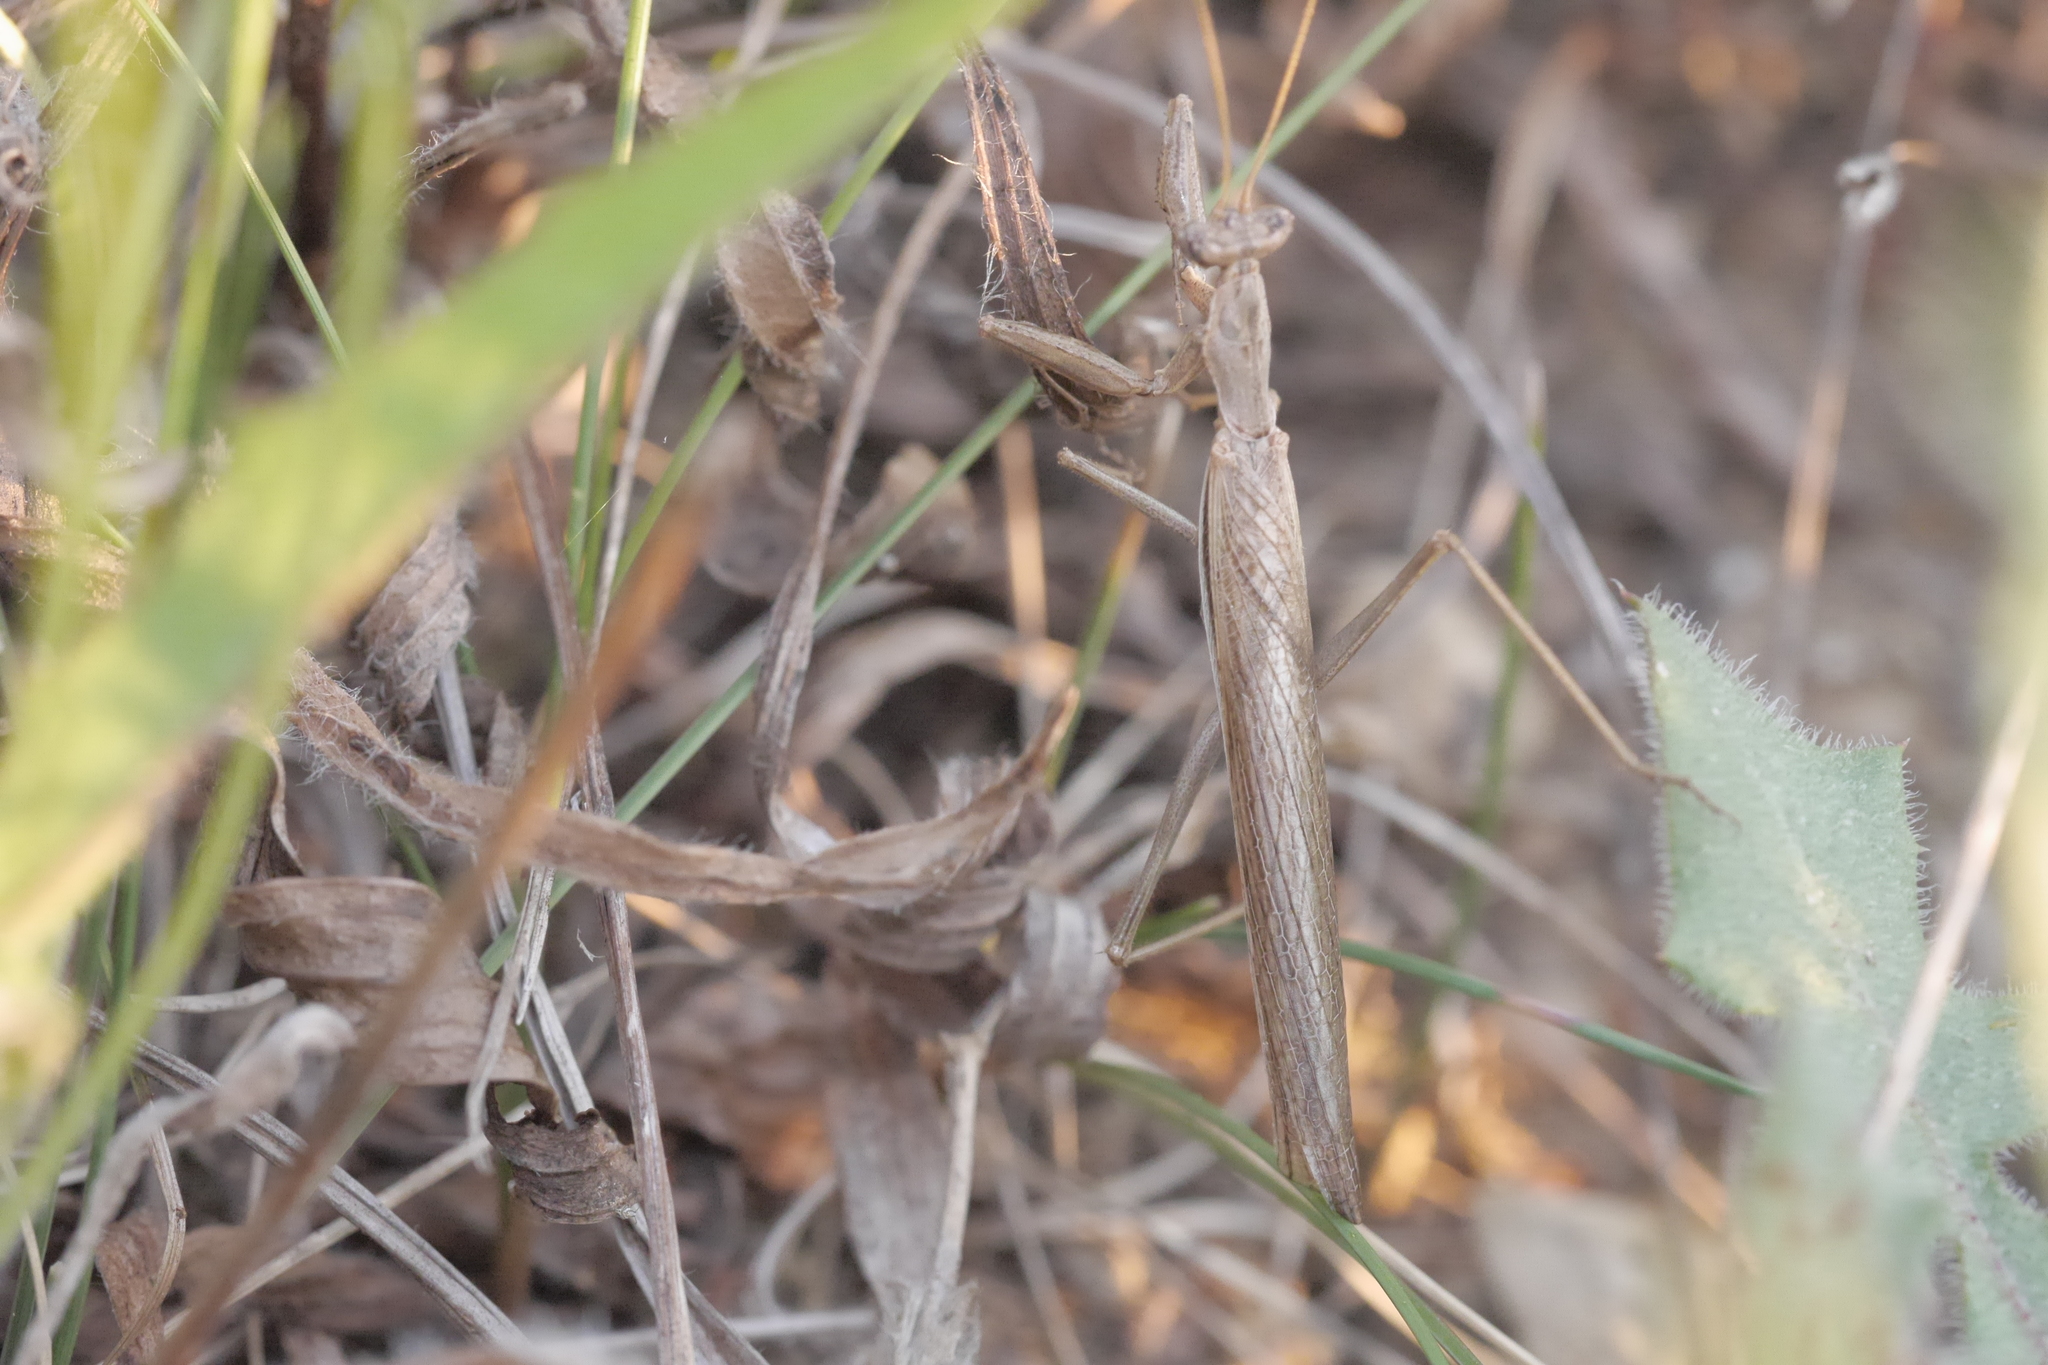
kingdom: Animalia
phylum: Arthropoda
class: Insecta
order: Mantodea
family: Amelidae
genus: Ameles
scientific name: Ameles decolor
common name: Dwarf mantis
